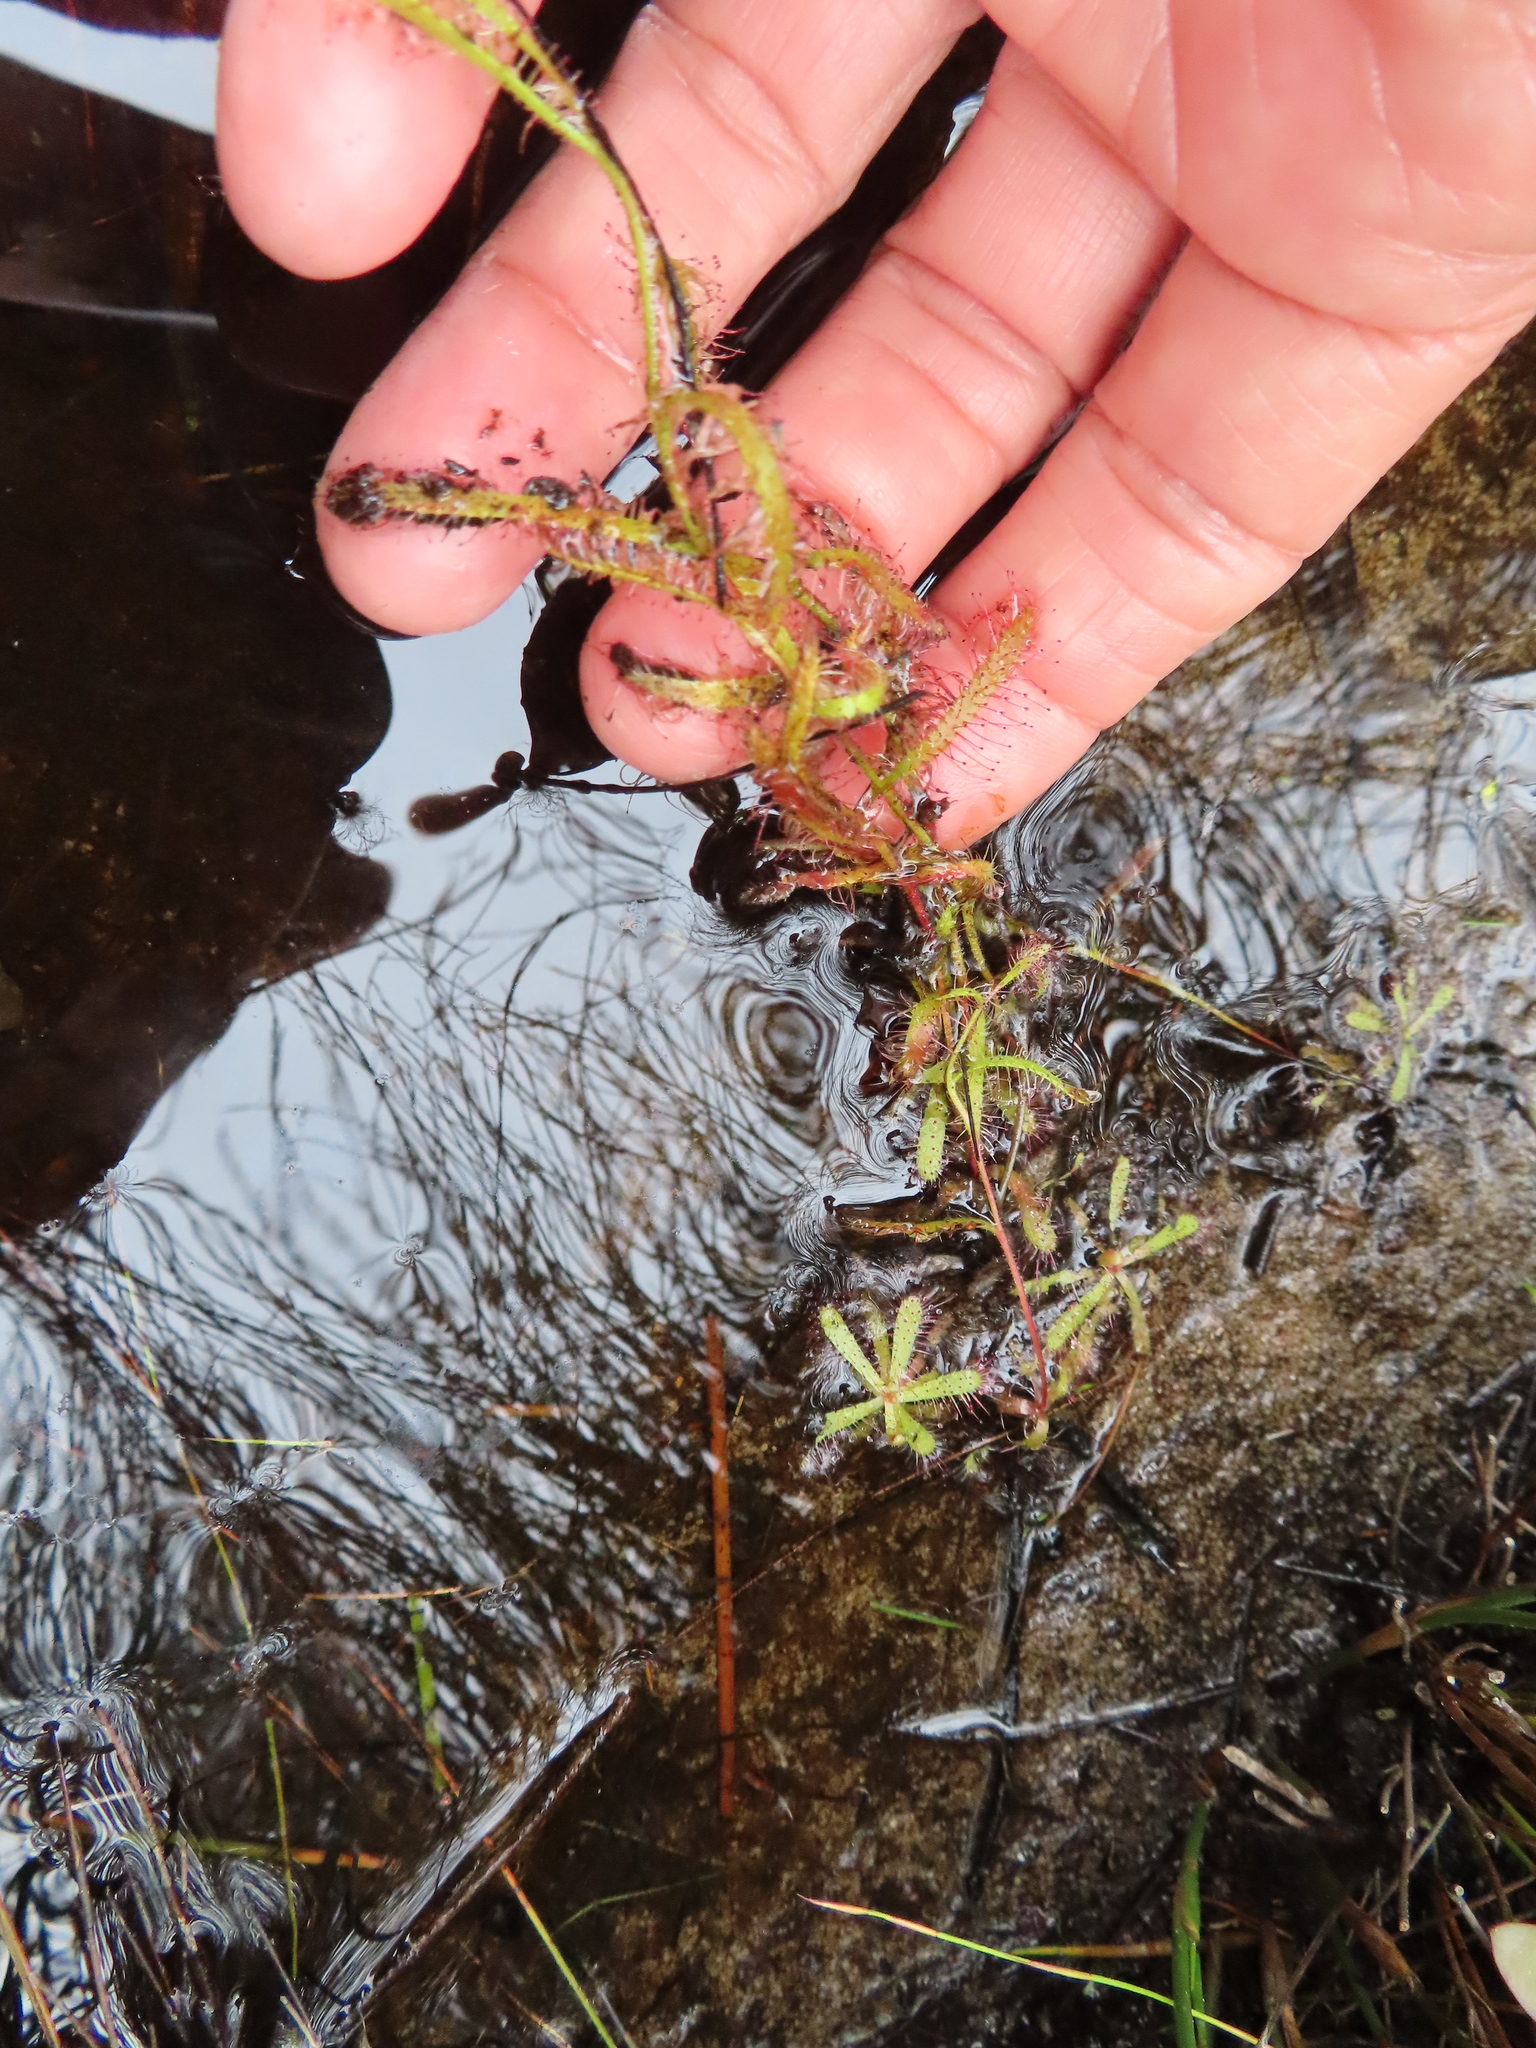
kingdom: Plantae
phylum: Tracheophyta
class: Magnoliopsida
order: Caryophyllales
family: Droseraceae
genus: Drosera
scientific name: Drosera cistiflora
